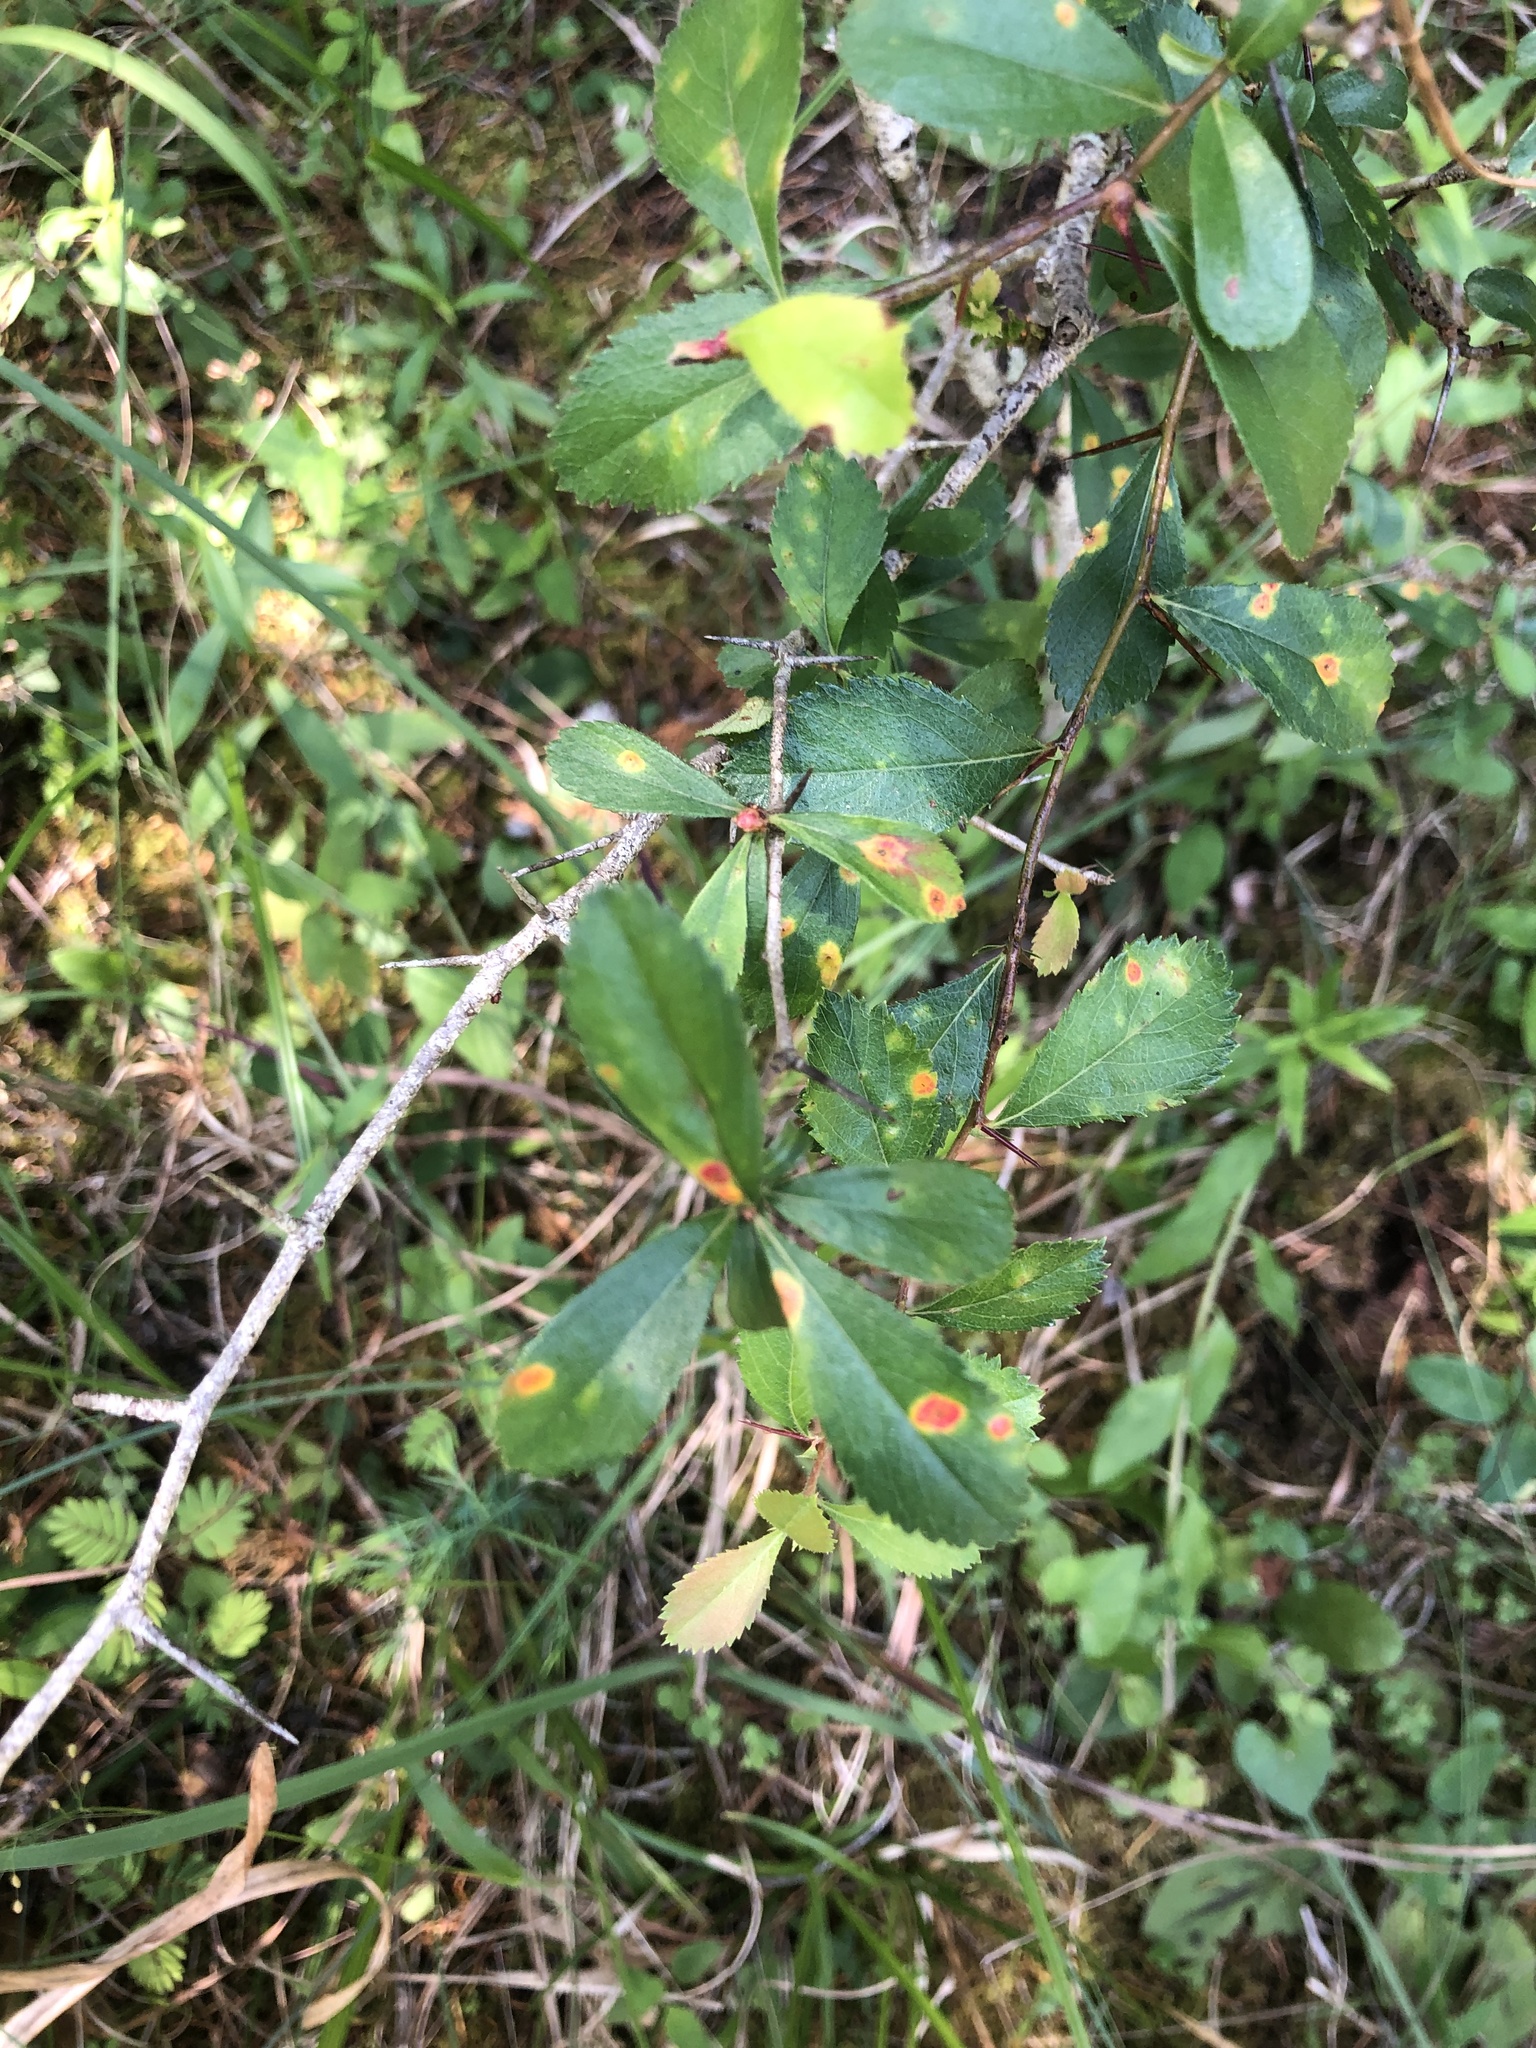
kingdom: Plantae
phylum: Tracheophyta
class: Magnoliopsida
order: Rosales
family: Rosaceae
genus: Crataegus
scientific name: Crataegus berberifolia
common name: Barberry hawthorn
